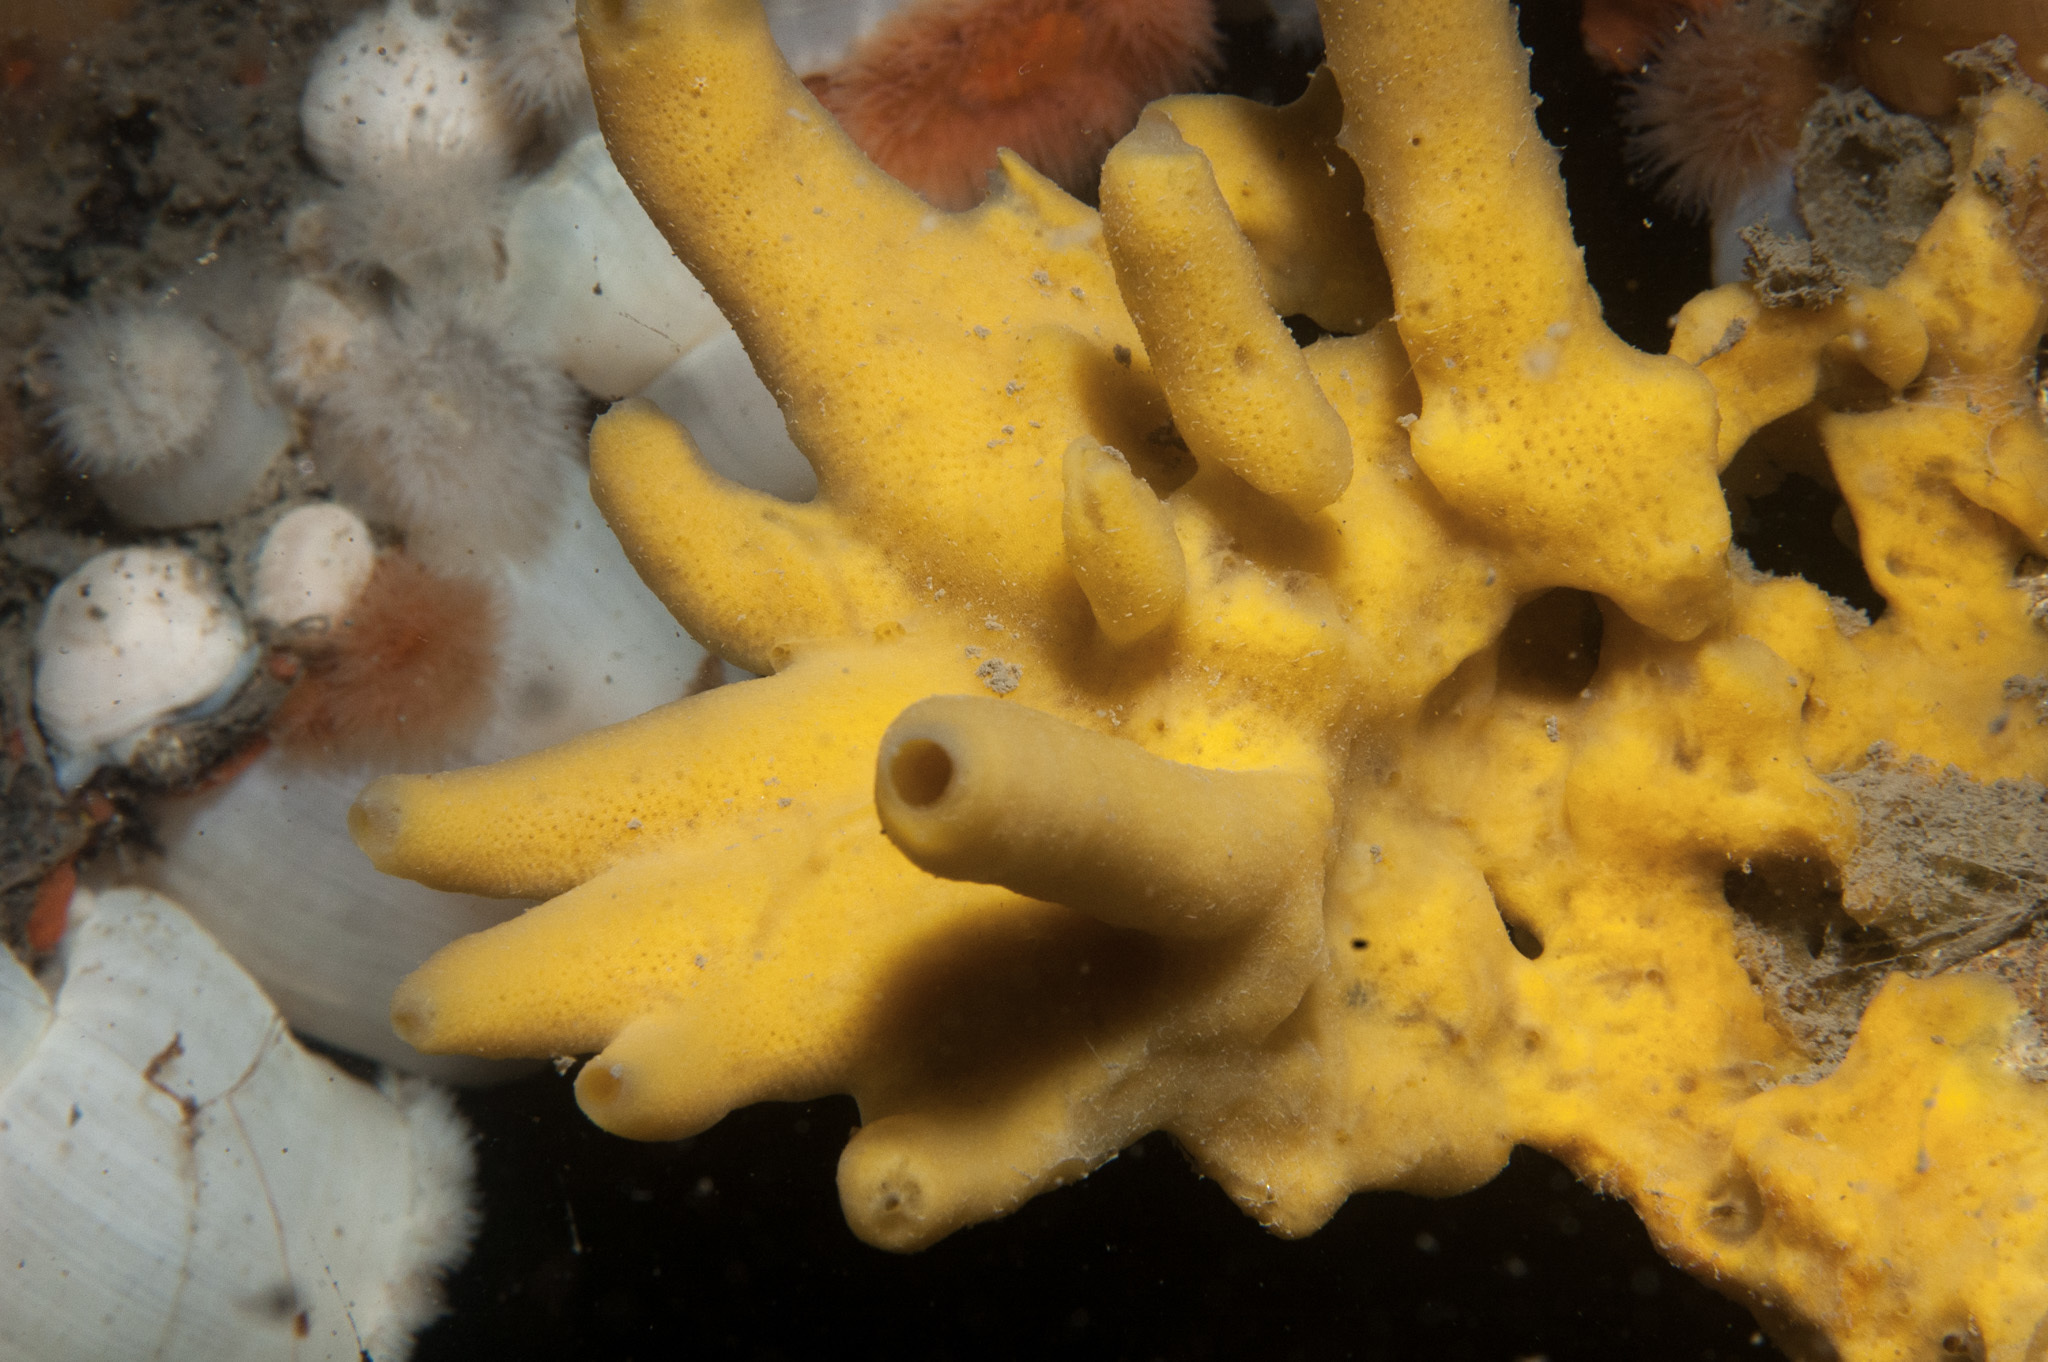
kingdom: Animalia
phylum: Porifera
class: Demospongiae
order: Suberitida
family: Halichondriidae
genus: Halichondria
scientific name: Halichondria panicea
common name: Breadcrumb sponge
